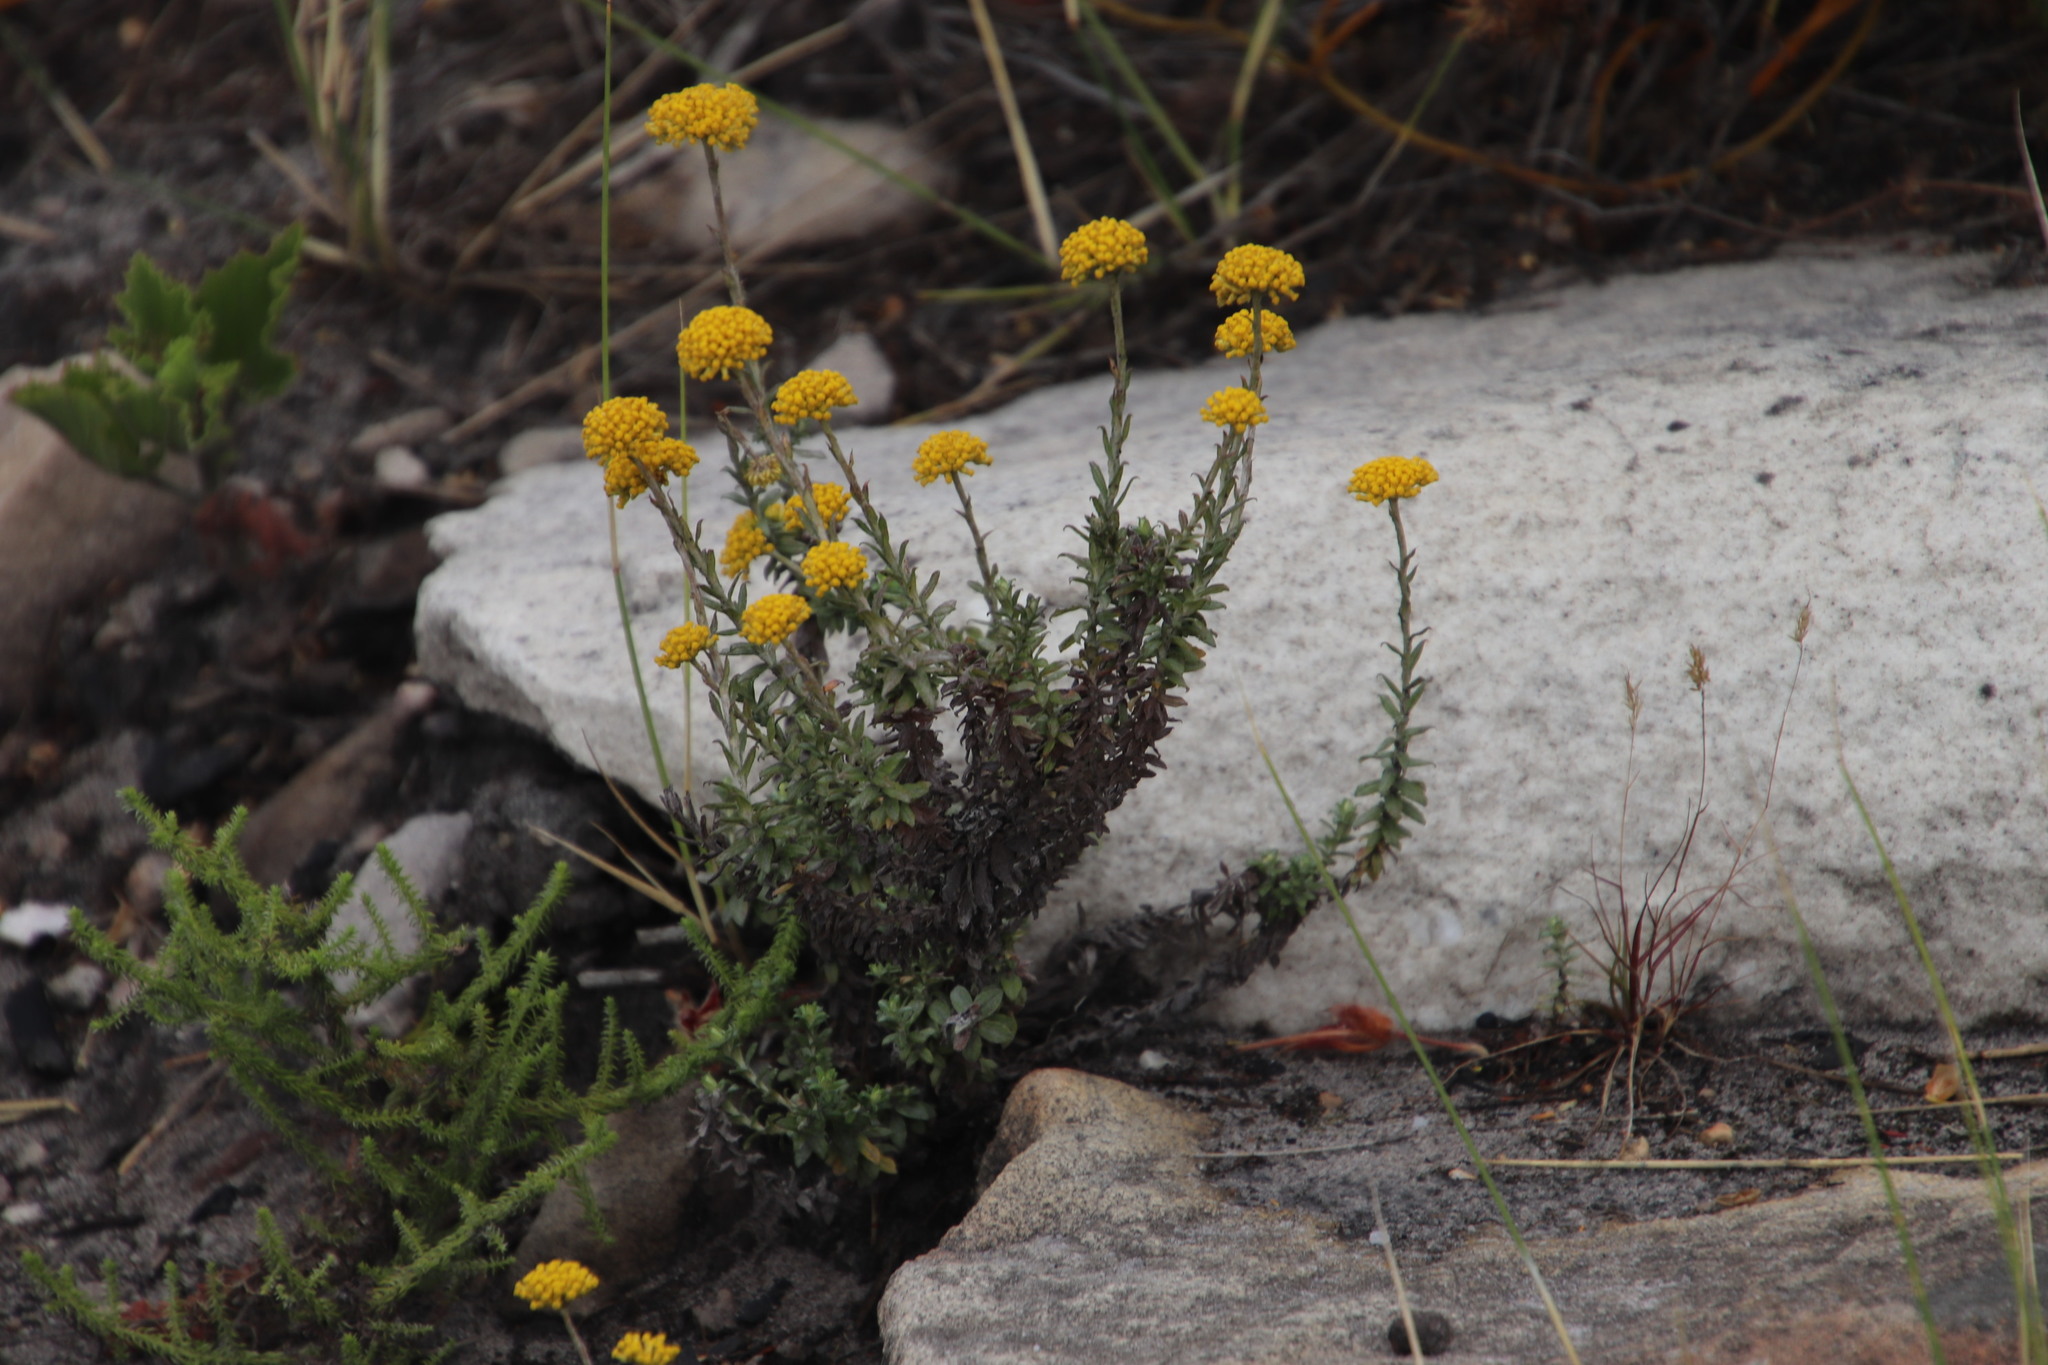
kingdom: Plantae
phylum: Tracheophyta
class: Magnoliopsida
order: Asterales
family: Asteraceae
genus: Helichrysum
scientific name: Helichrysum cymosum
